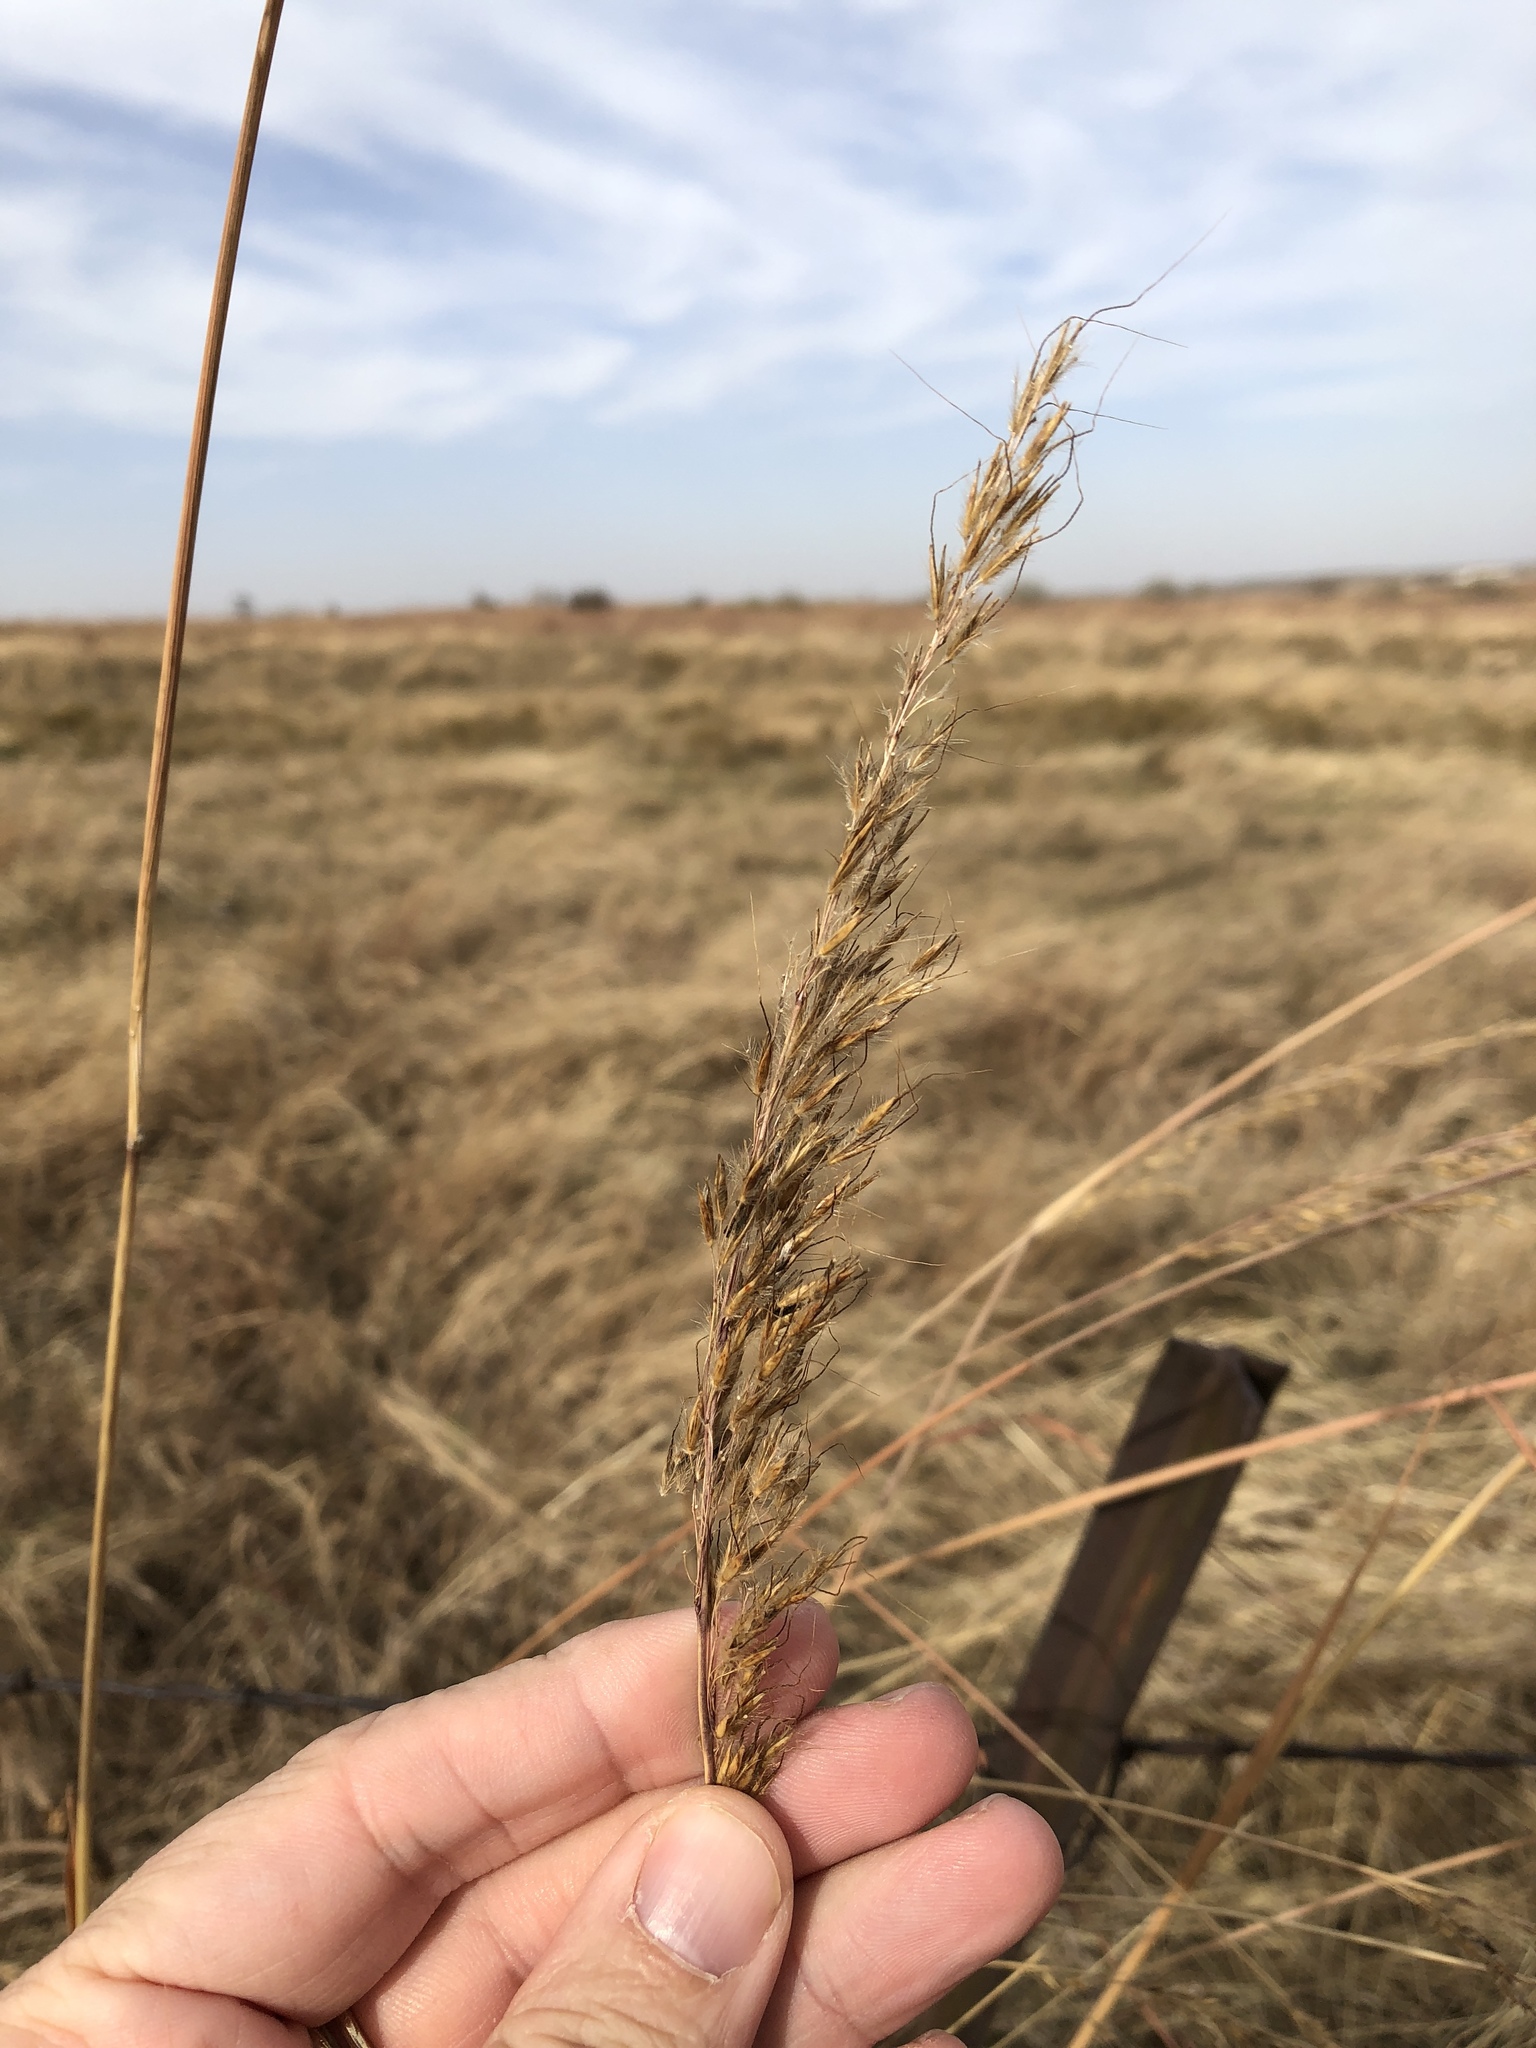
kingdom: Plantae
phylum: Tracheophyta
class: Liliopsida
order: Poales
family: Poaceae
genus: Sorghastrum
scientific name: Sorghastrum nutans
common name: Indian grass
